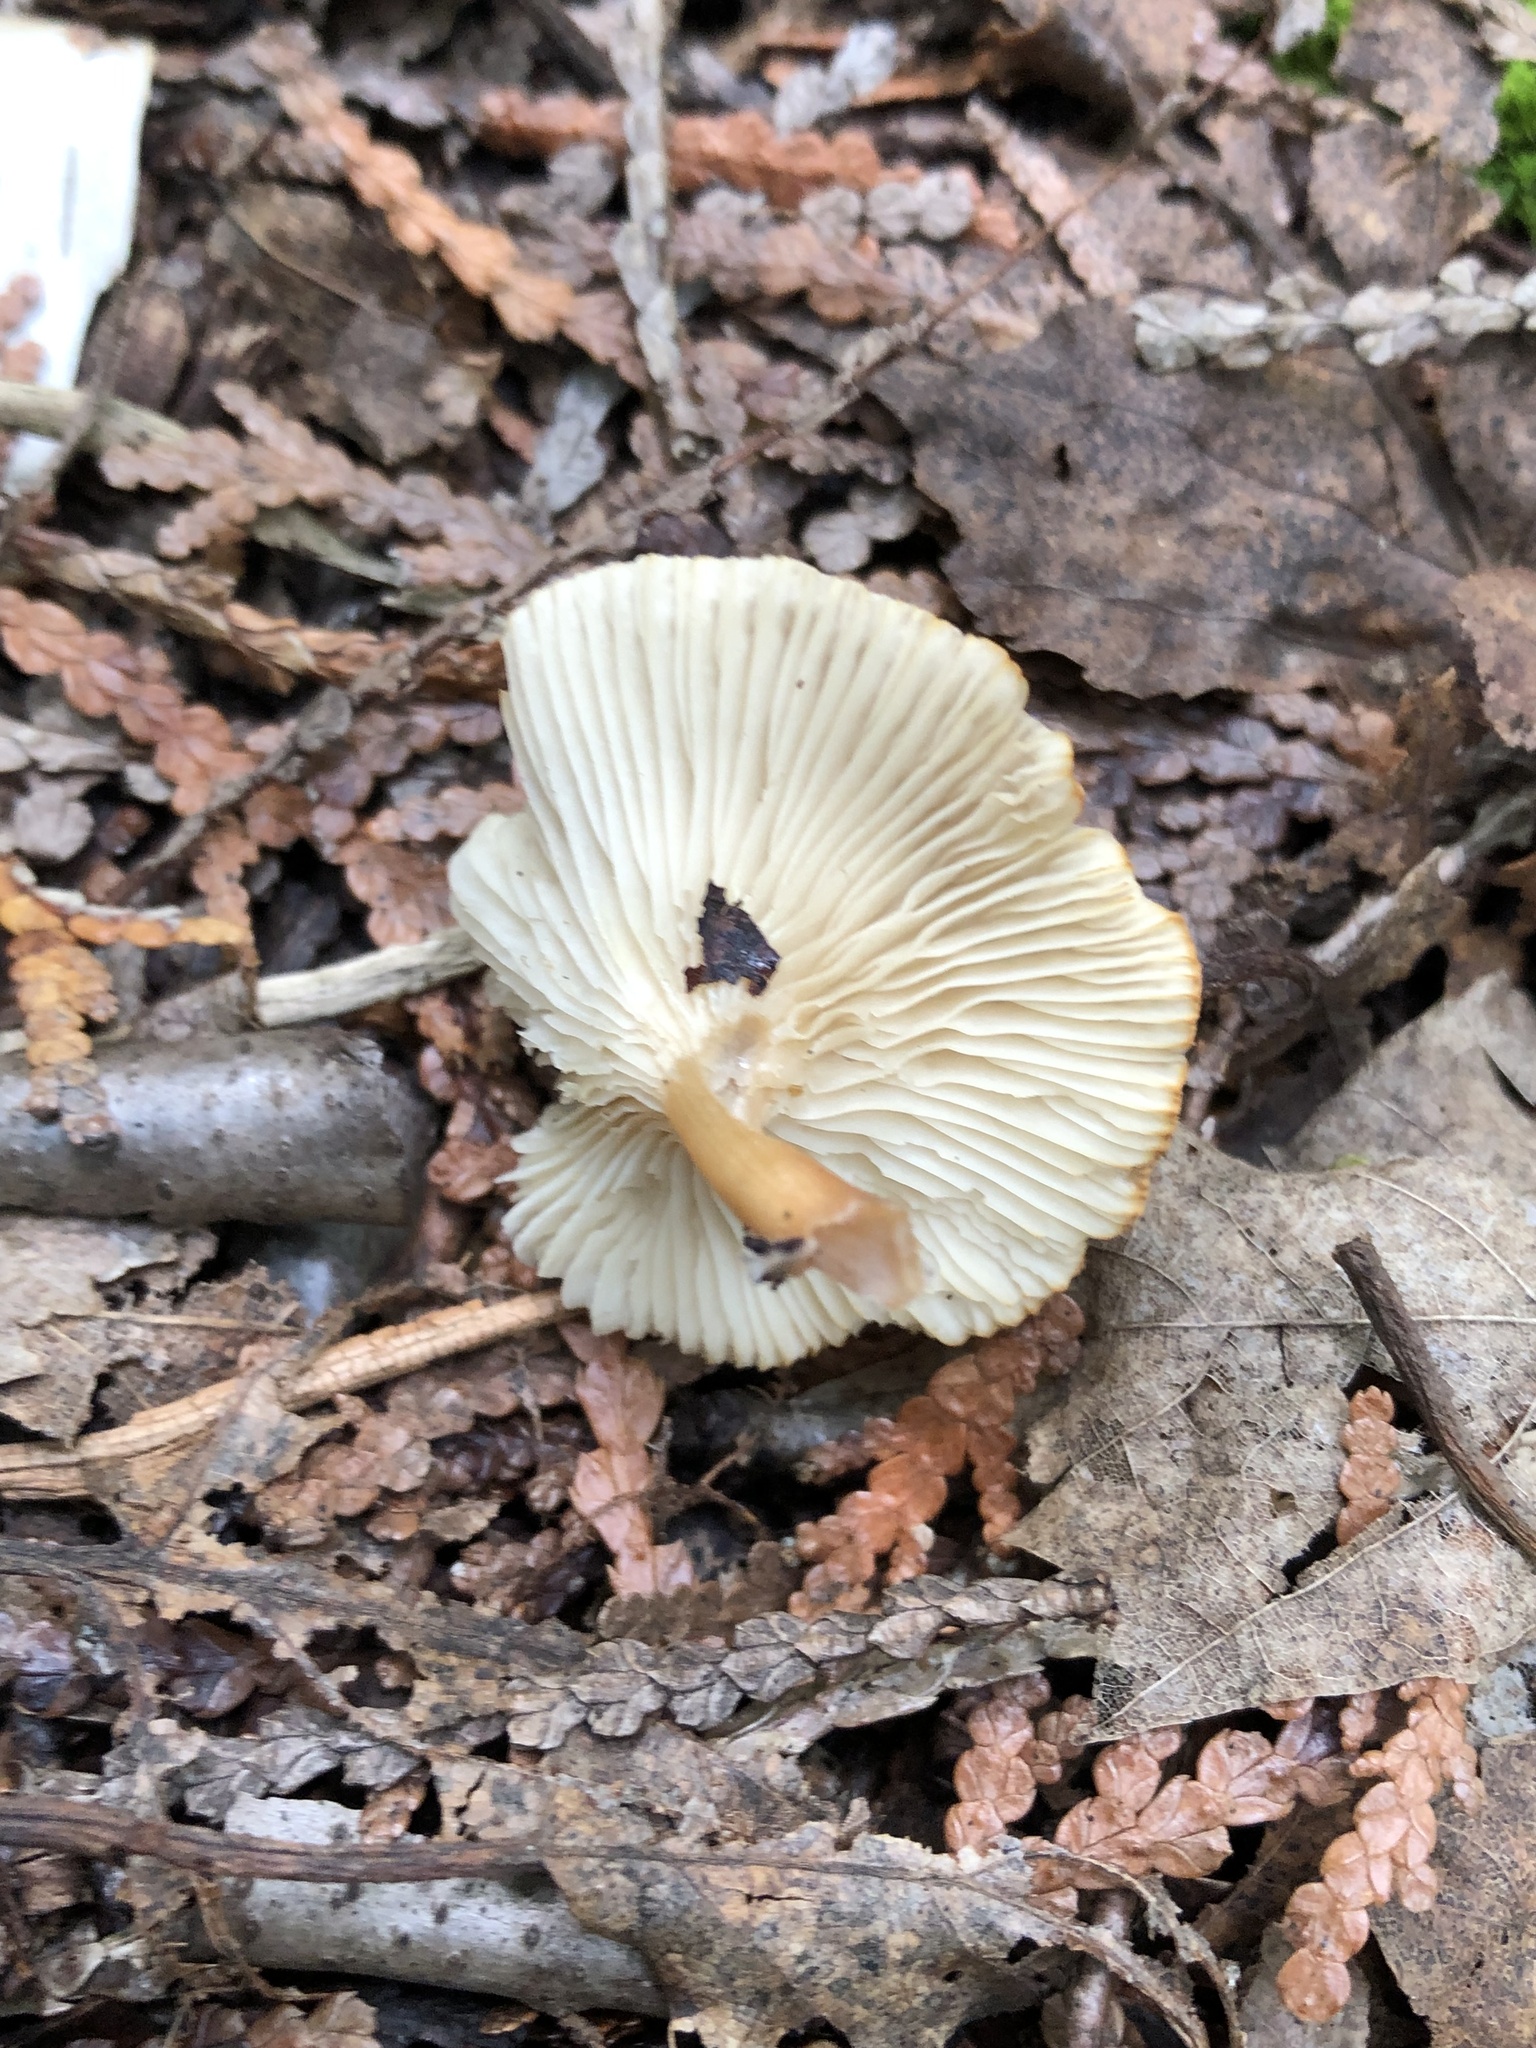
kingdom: Fungi
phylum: Basidiomycota
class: Agaricomycetes
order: Agaricales
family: Tricholomataceae
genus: Infundibulicybe
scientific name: Infundibulicybe gibba
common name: Common funnel
